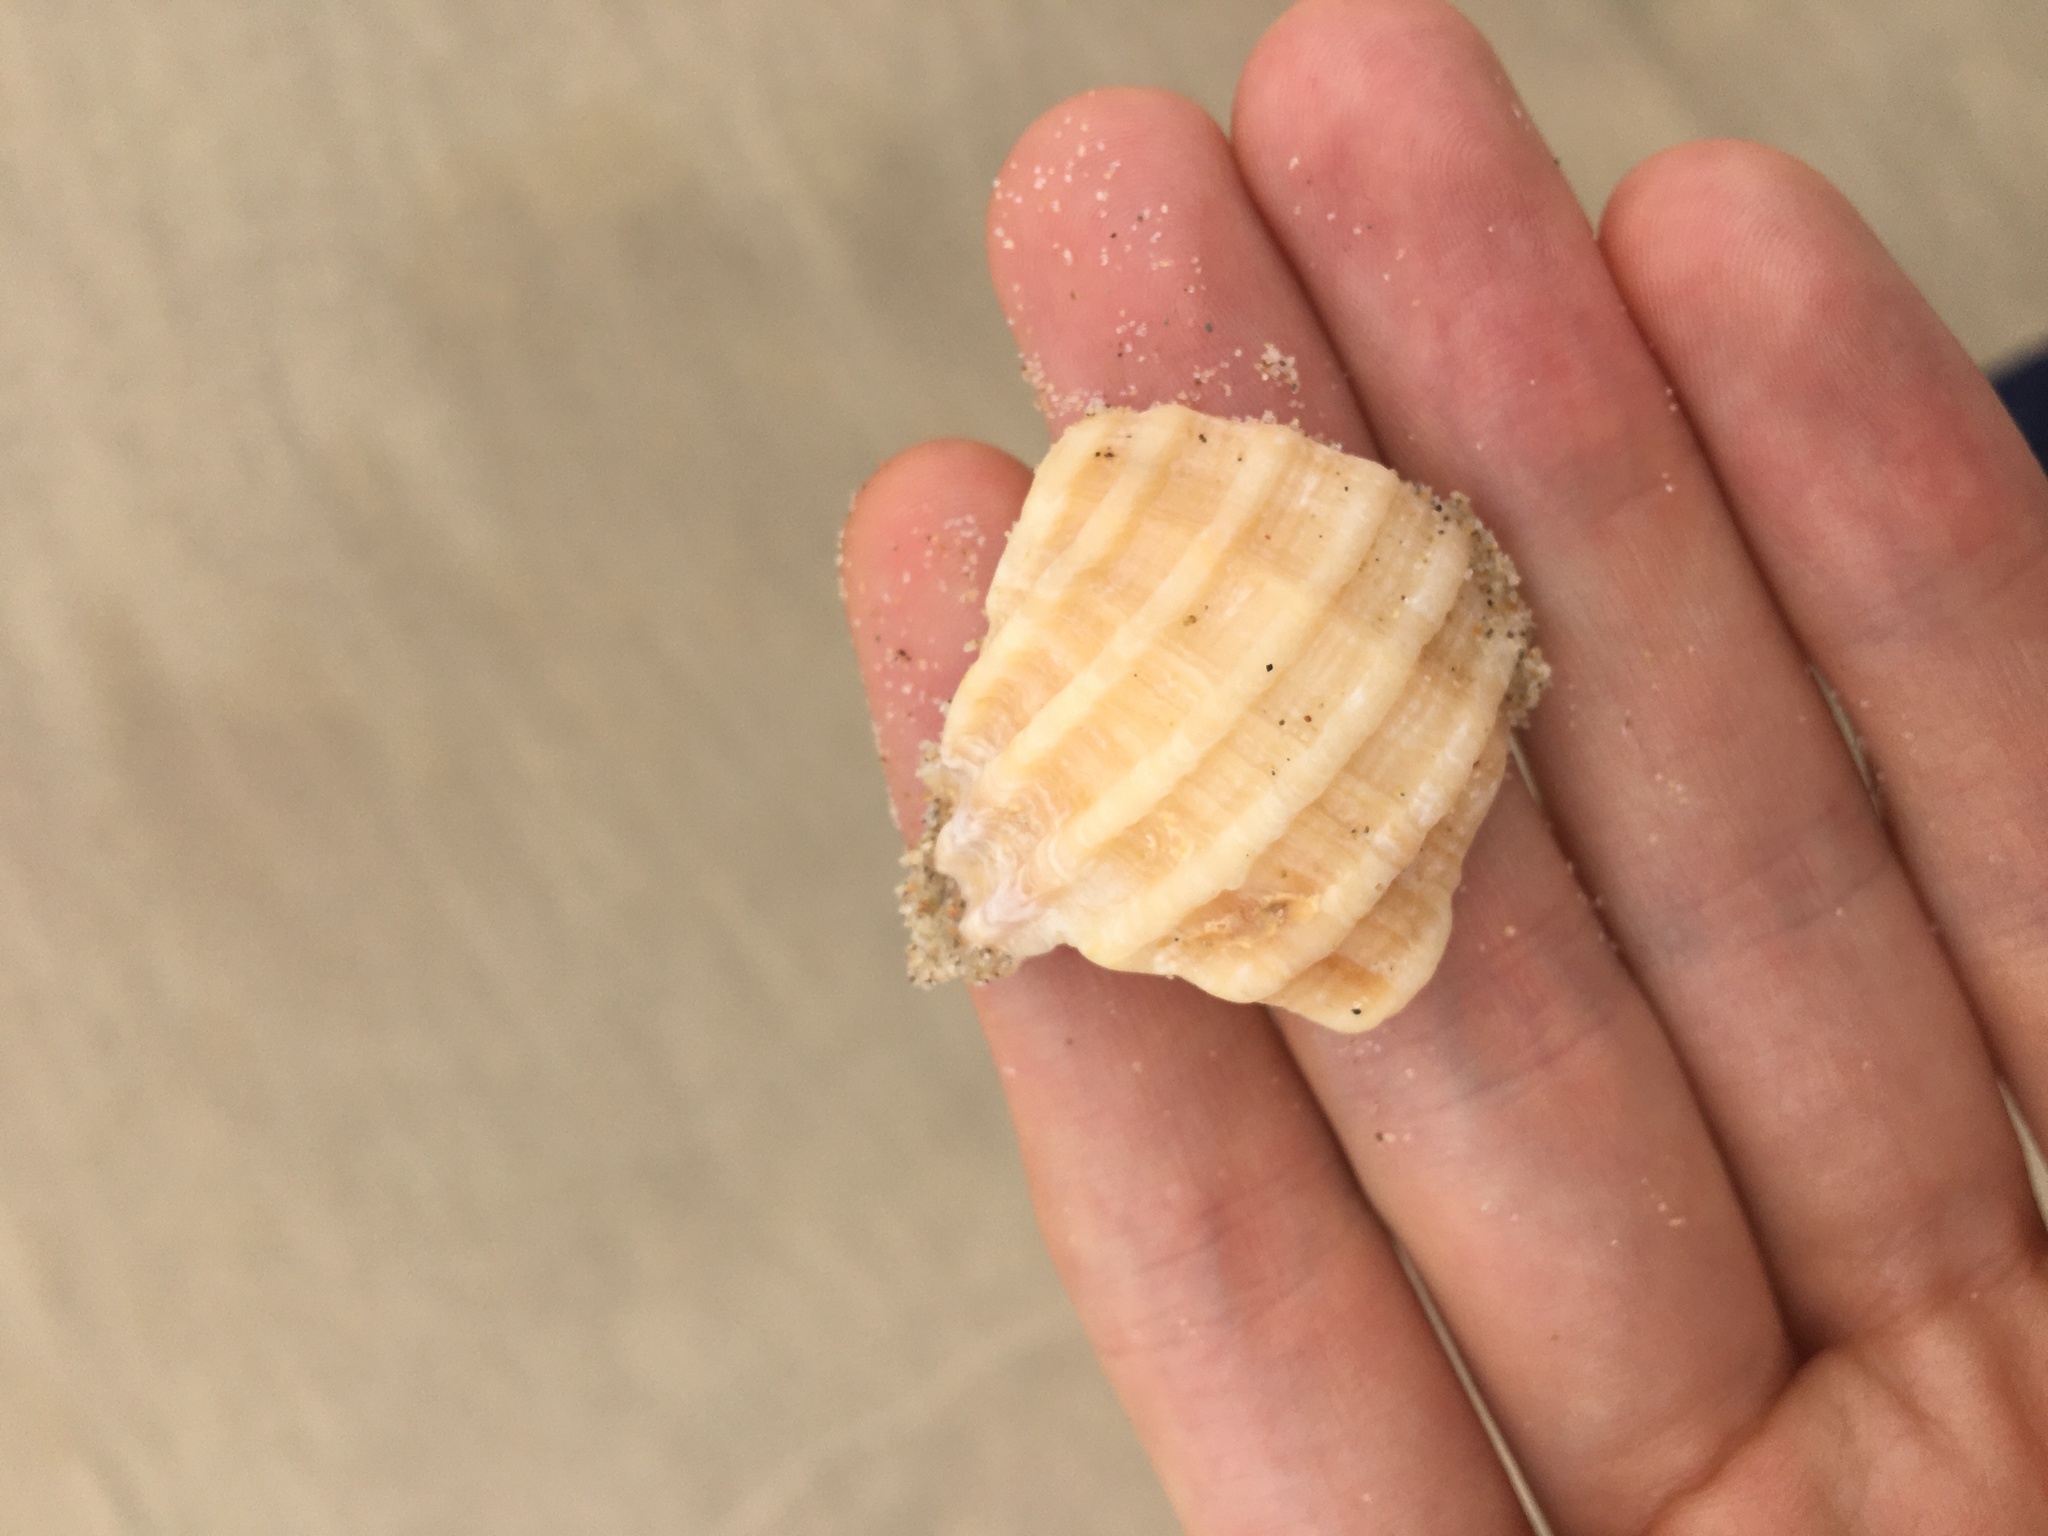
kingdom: Animalia
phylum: Mollusca
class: Gastropoda
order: Neogastropoda
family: Muricidae
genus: Dicathais
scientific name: Dicathais orbita
